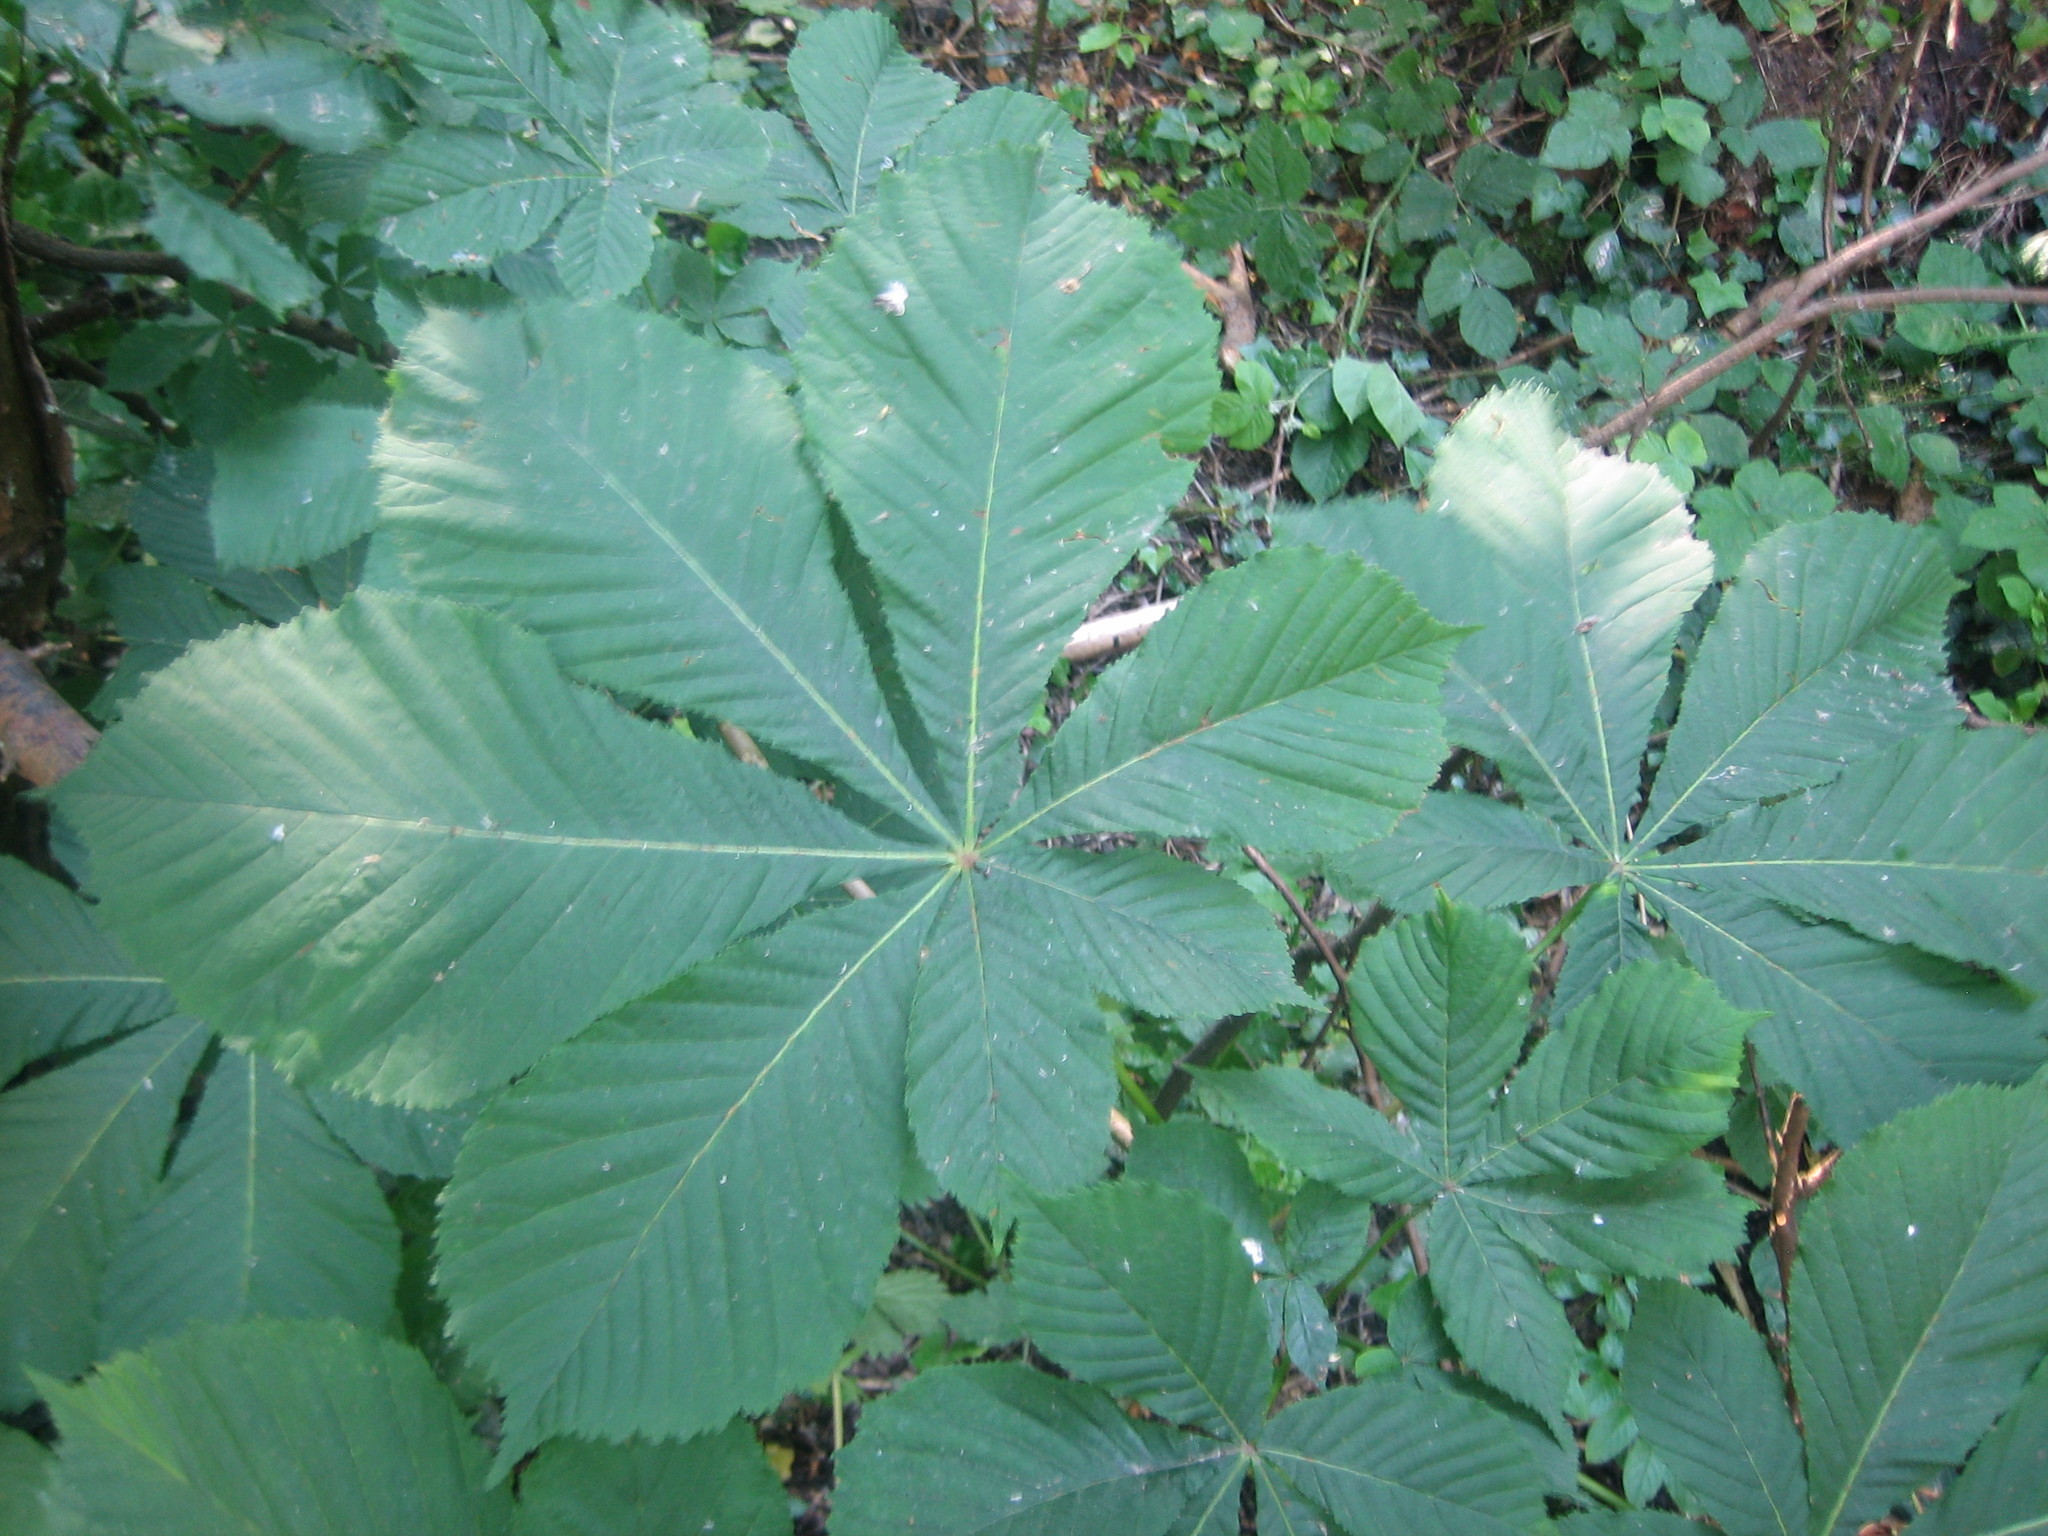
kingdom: Plantae
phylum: Tracheophyta
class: Magnoliopsida
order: Sapindales
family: Sapindaceae
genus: Aesculus
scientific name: Aesculus hippocastanum
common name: Horse-chestnut
